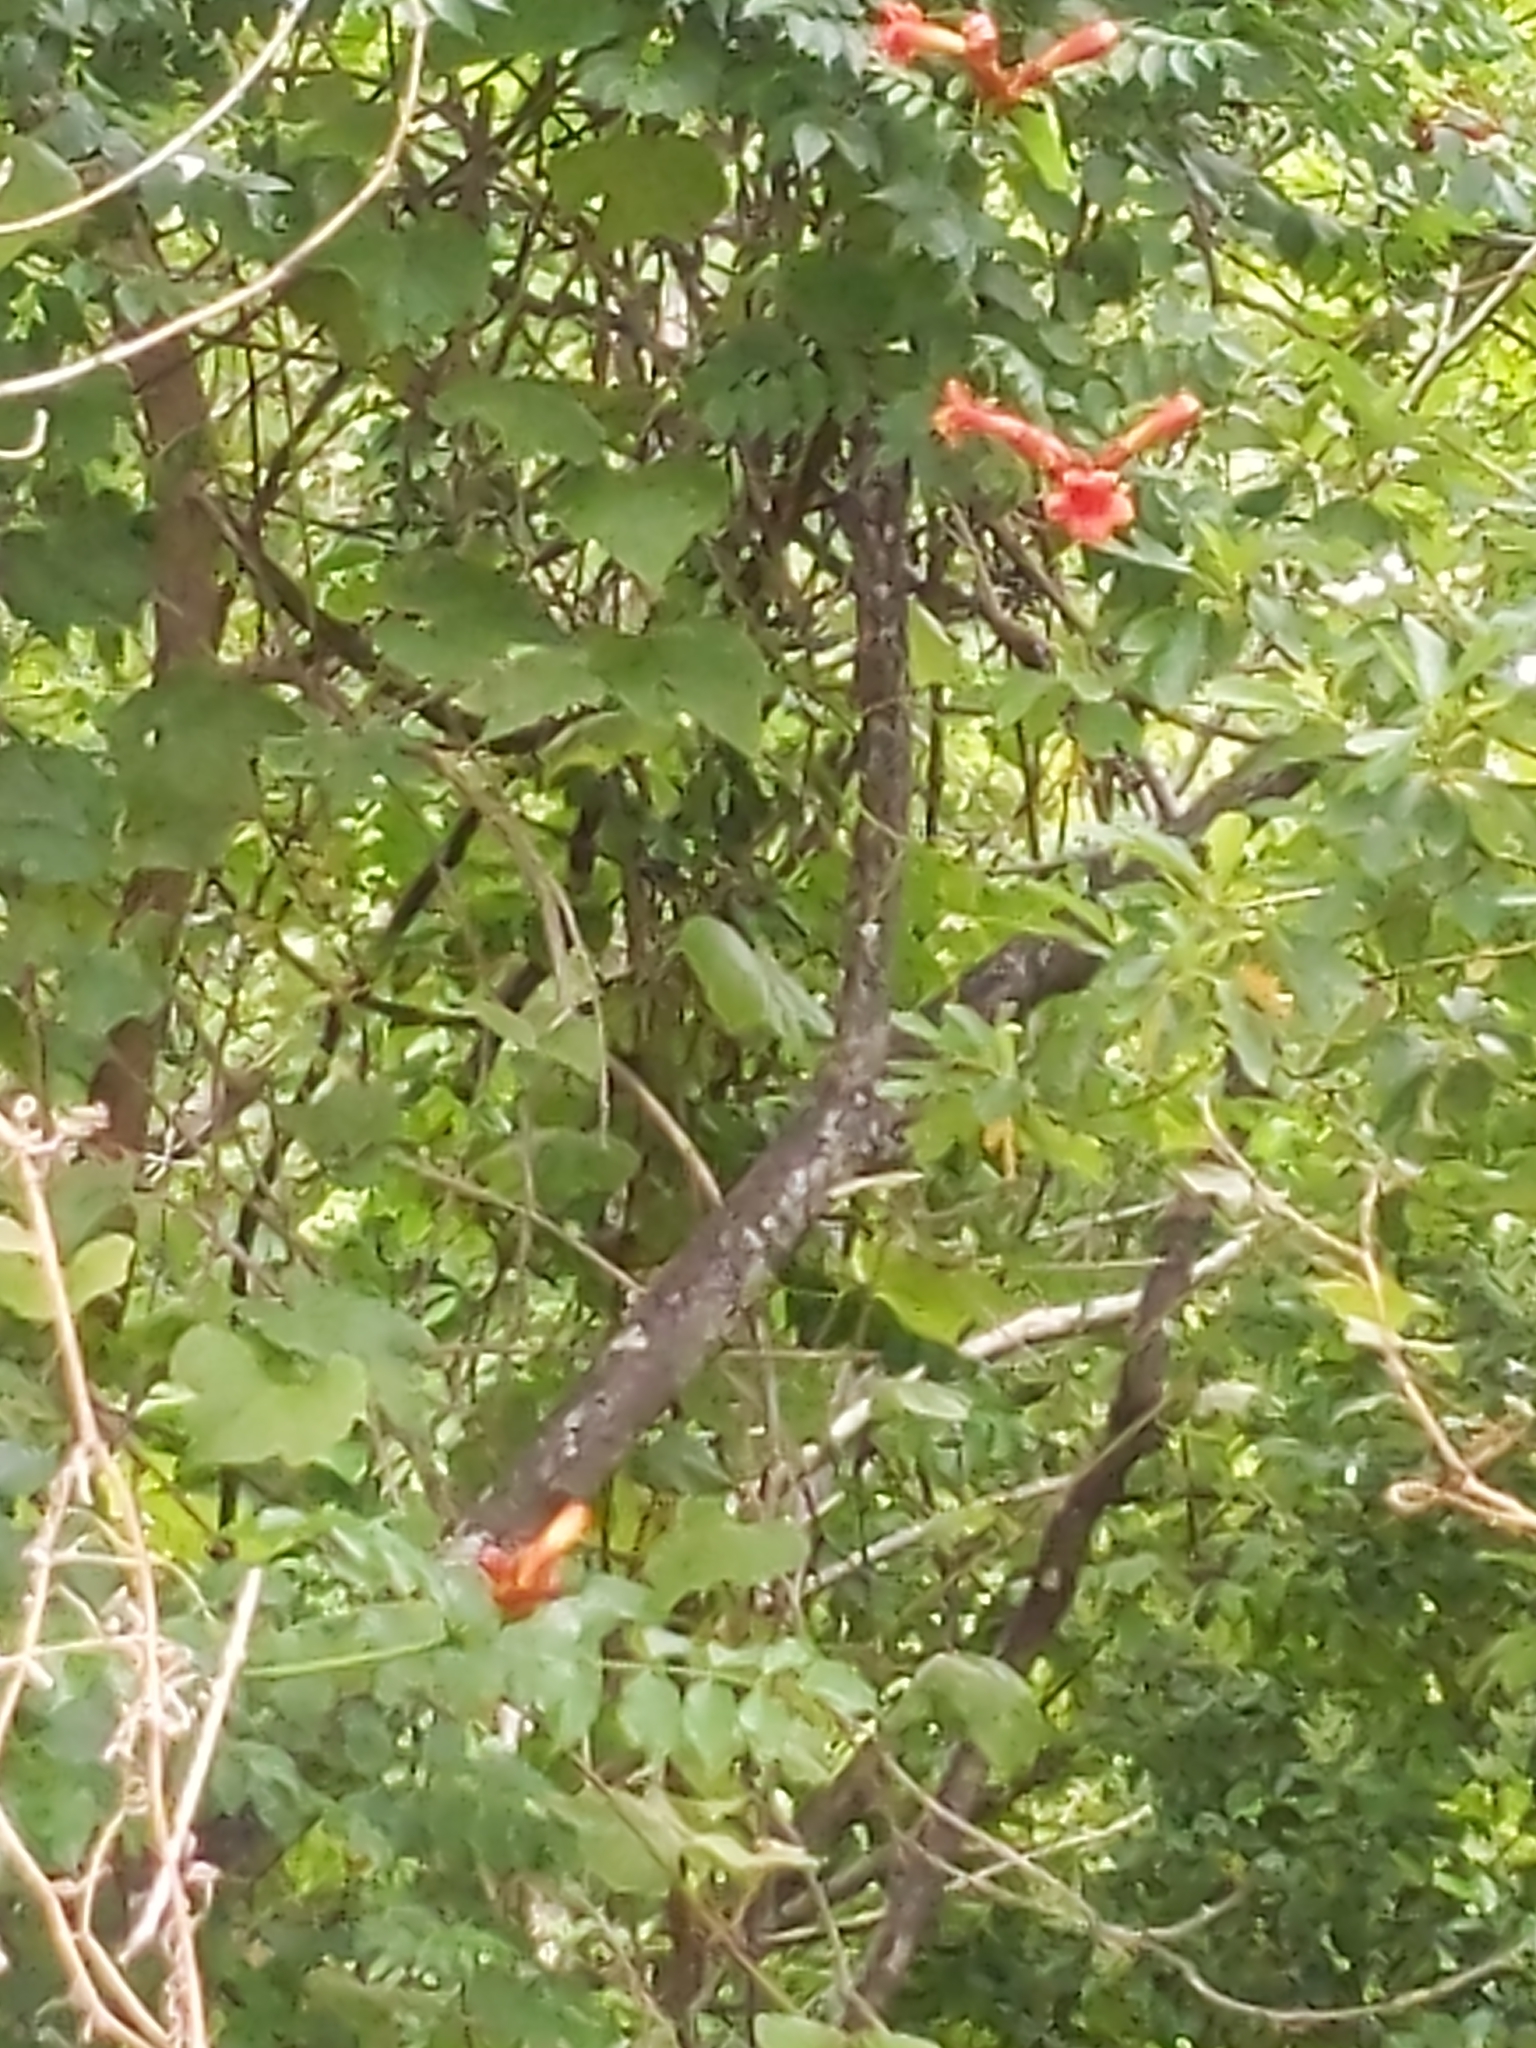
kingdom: Plantae
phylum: Tracheophyta
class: Magnoliopsida
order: Lamiales
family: Bignoniaceae
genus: Campsis
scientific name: Campsis radicans
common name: Trumpet-creeper
